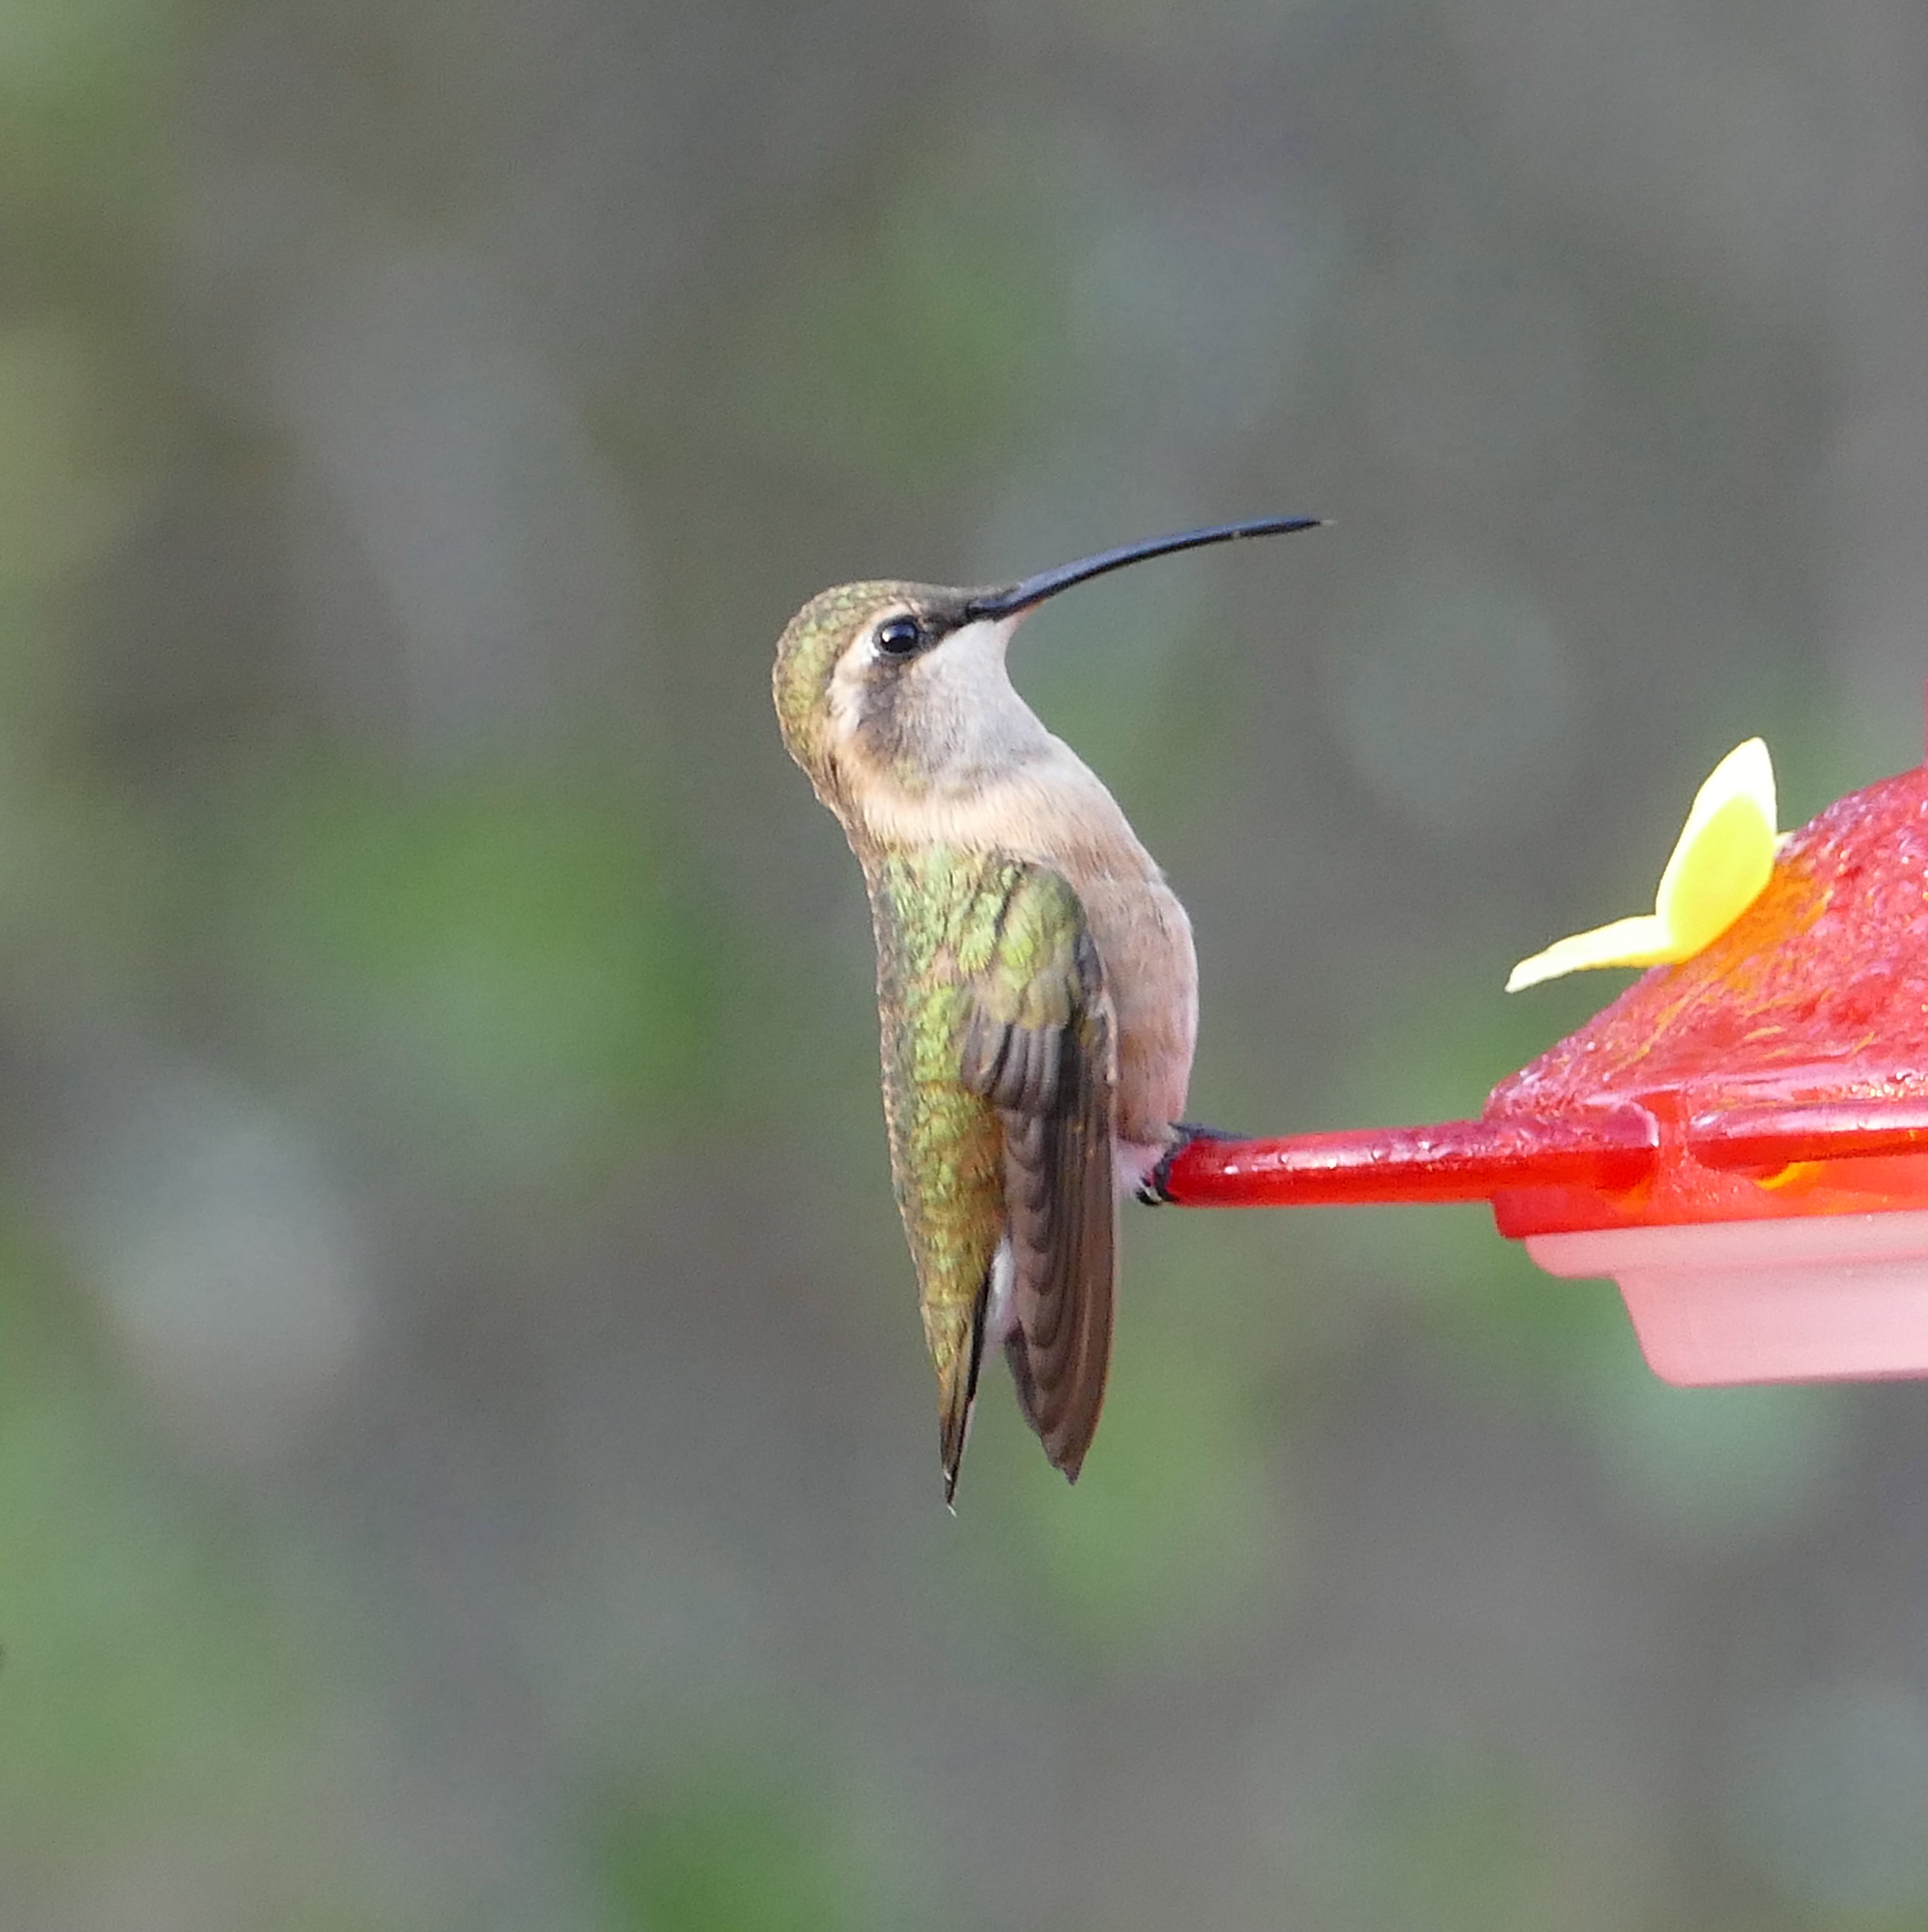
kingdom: Animalia
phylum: Chordata
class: Aves
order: Apodiformes
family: Trochilidae
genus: Calothorax
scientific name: Calothorax lucifer
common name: Lucifer sheartail
